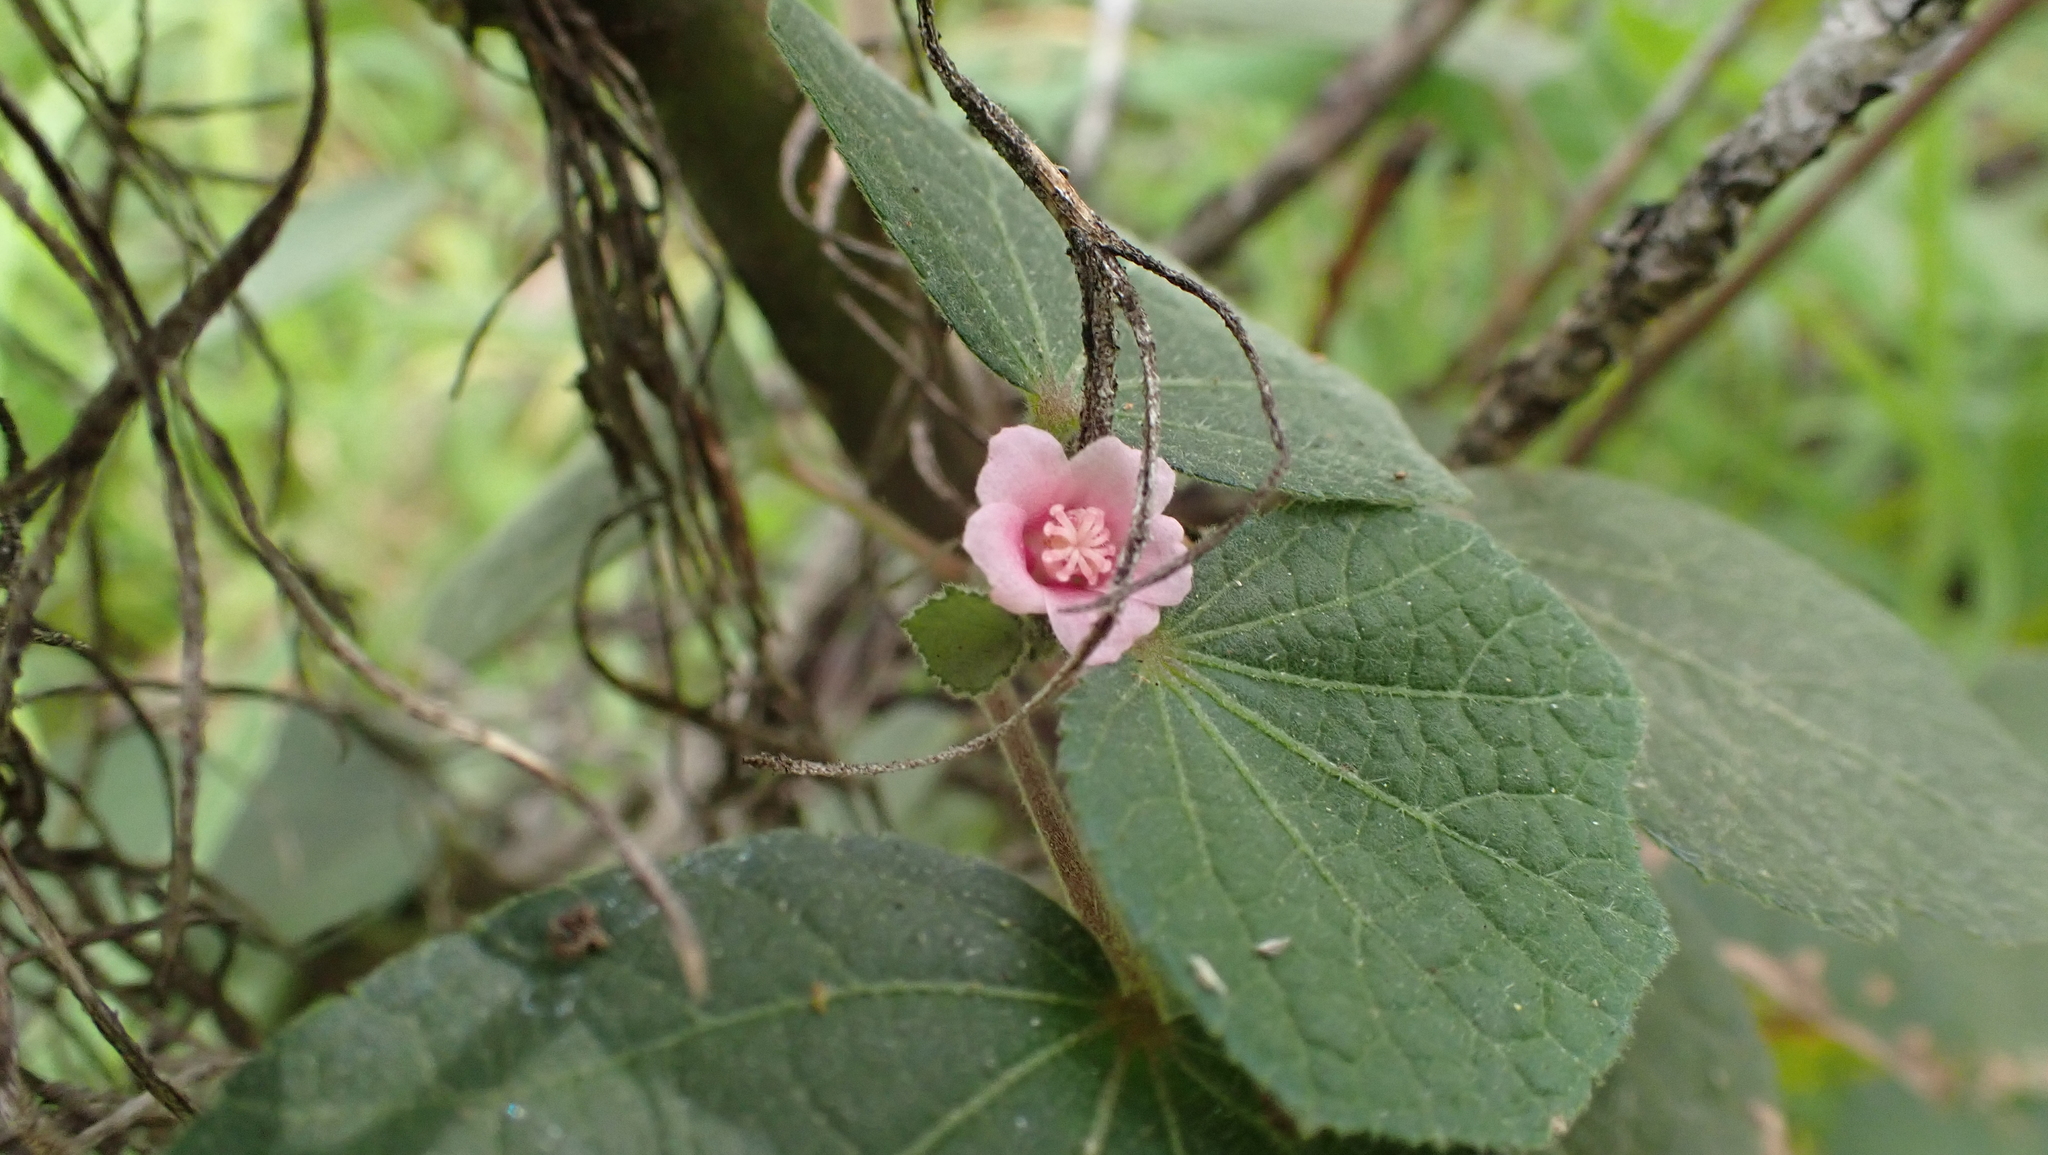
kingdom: Plantae
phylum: Tracheophyta
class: Magnoliopsida
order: Malvales
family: Malvaceae
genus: Urena
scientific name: Urena lobata
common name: Caesarweed
